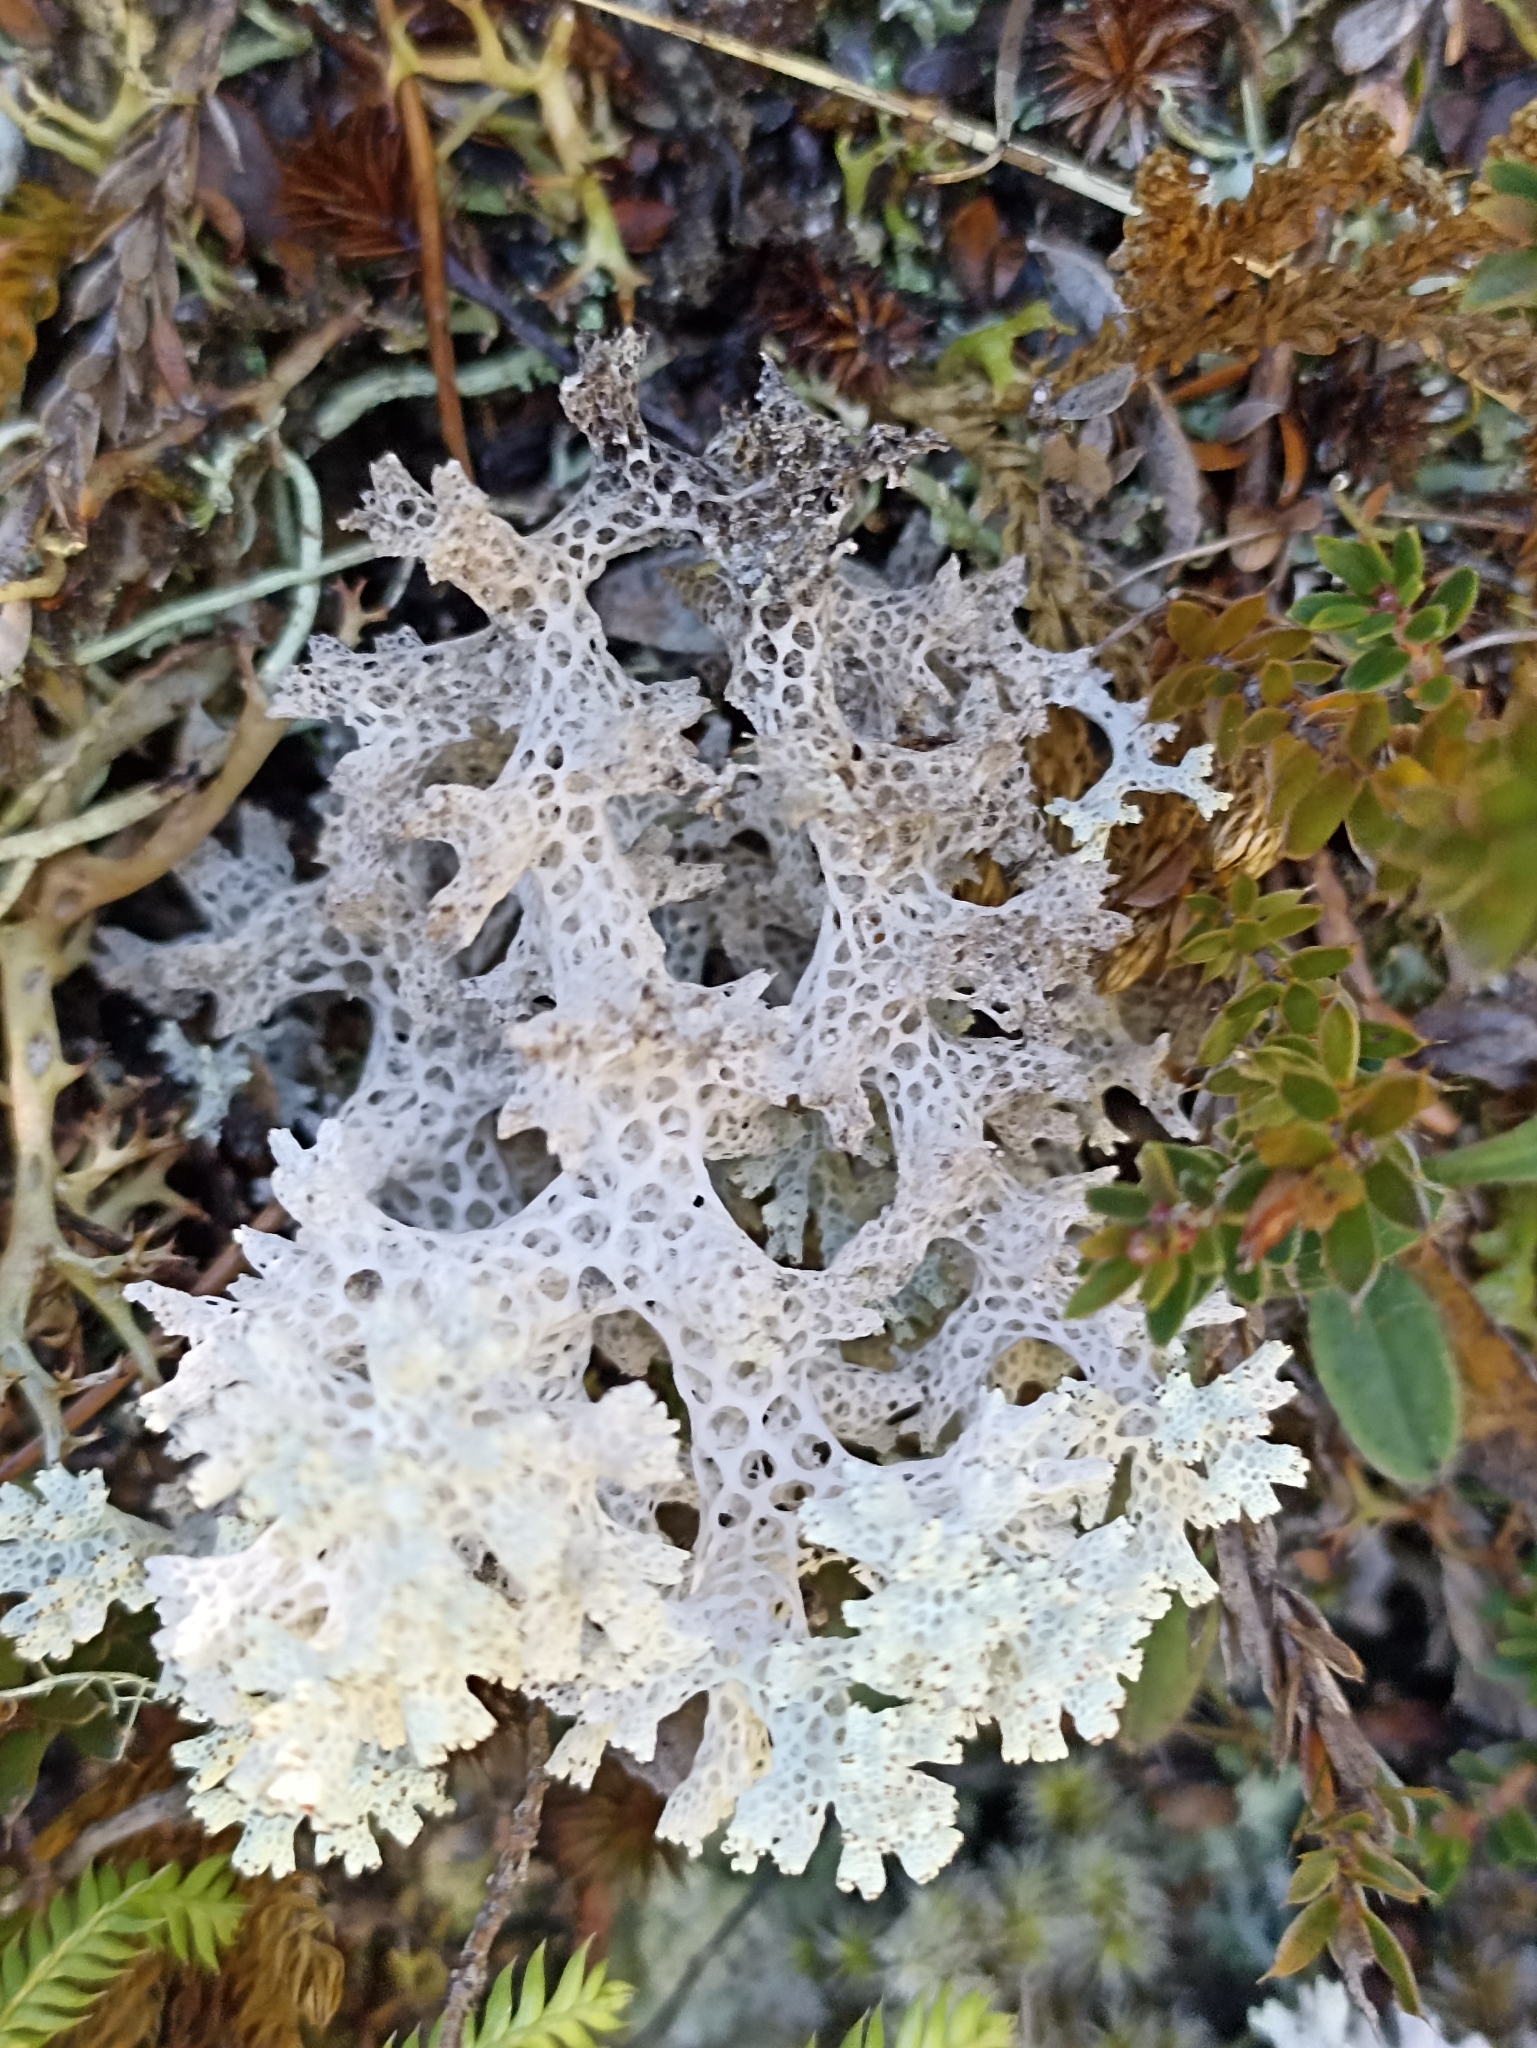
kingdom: Fungi
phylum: Ascomycota
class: Lecanoromycetes
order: Lecanorales
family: Cladoniaceae
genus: Pulchrocladia
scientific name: Pulchrocladia retipora
